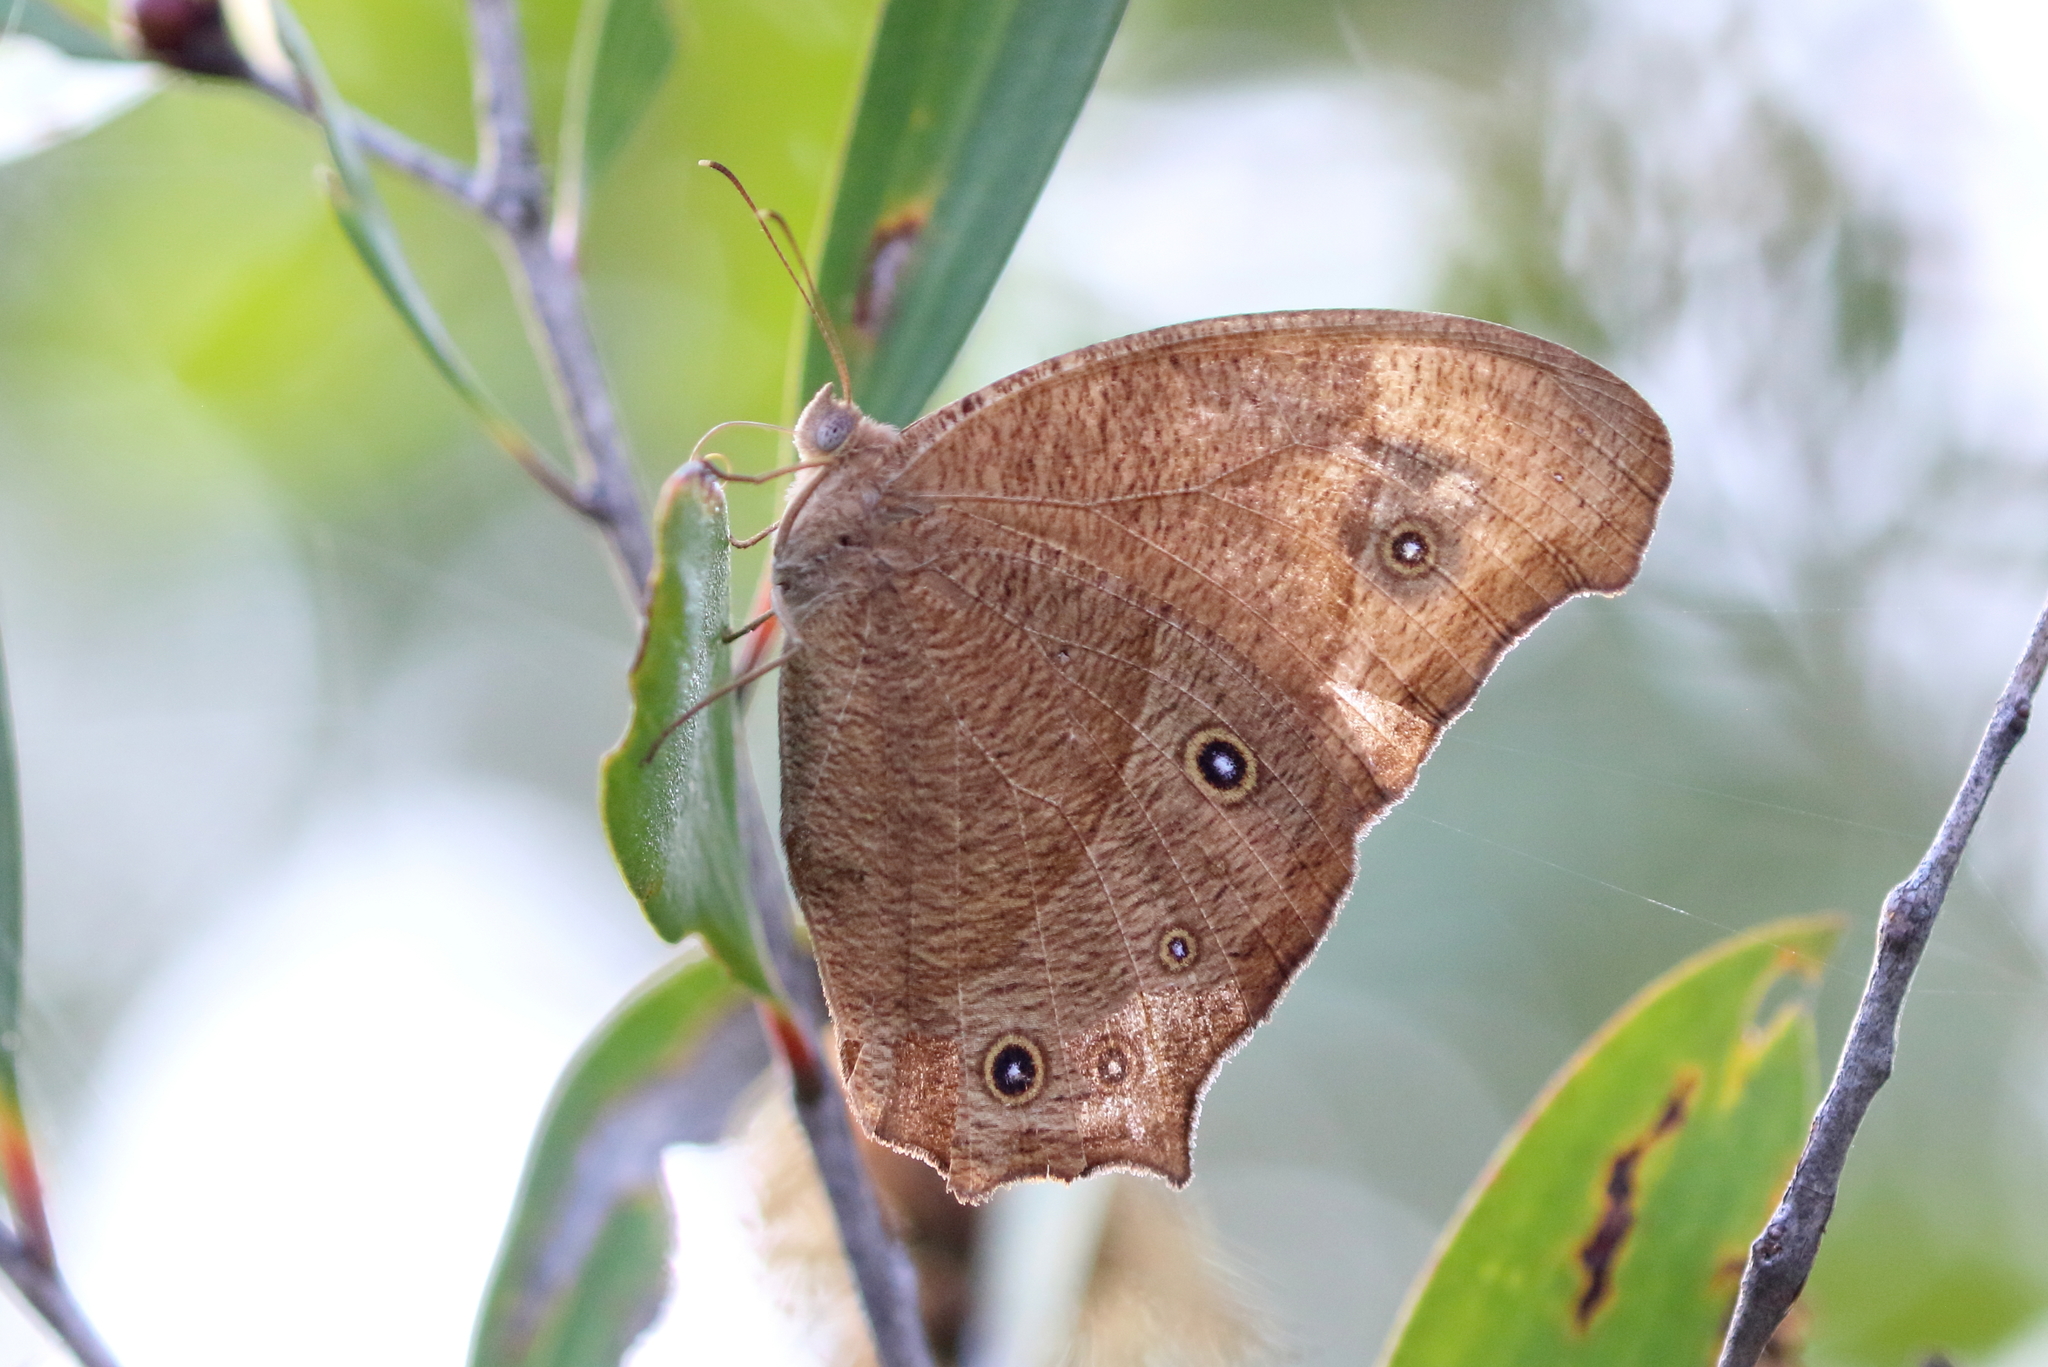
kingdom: Animalia
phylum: Arthropoda
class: Insecta
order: Lepidoptera
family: Nymphalidae
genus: Melanitis
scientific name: Melanitis leda
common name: Twilight brown
